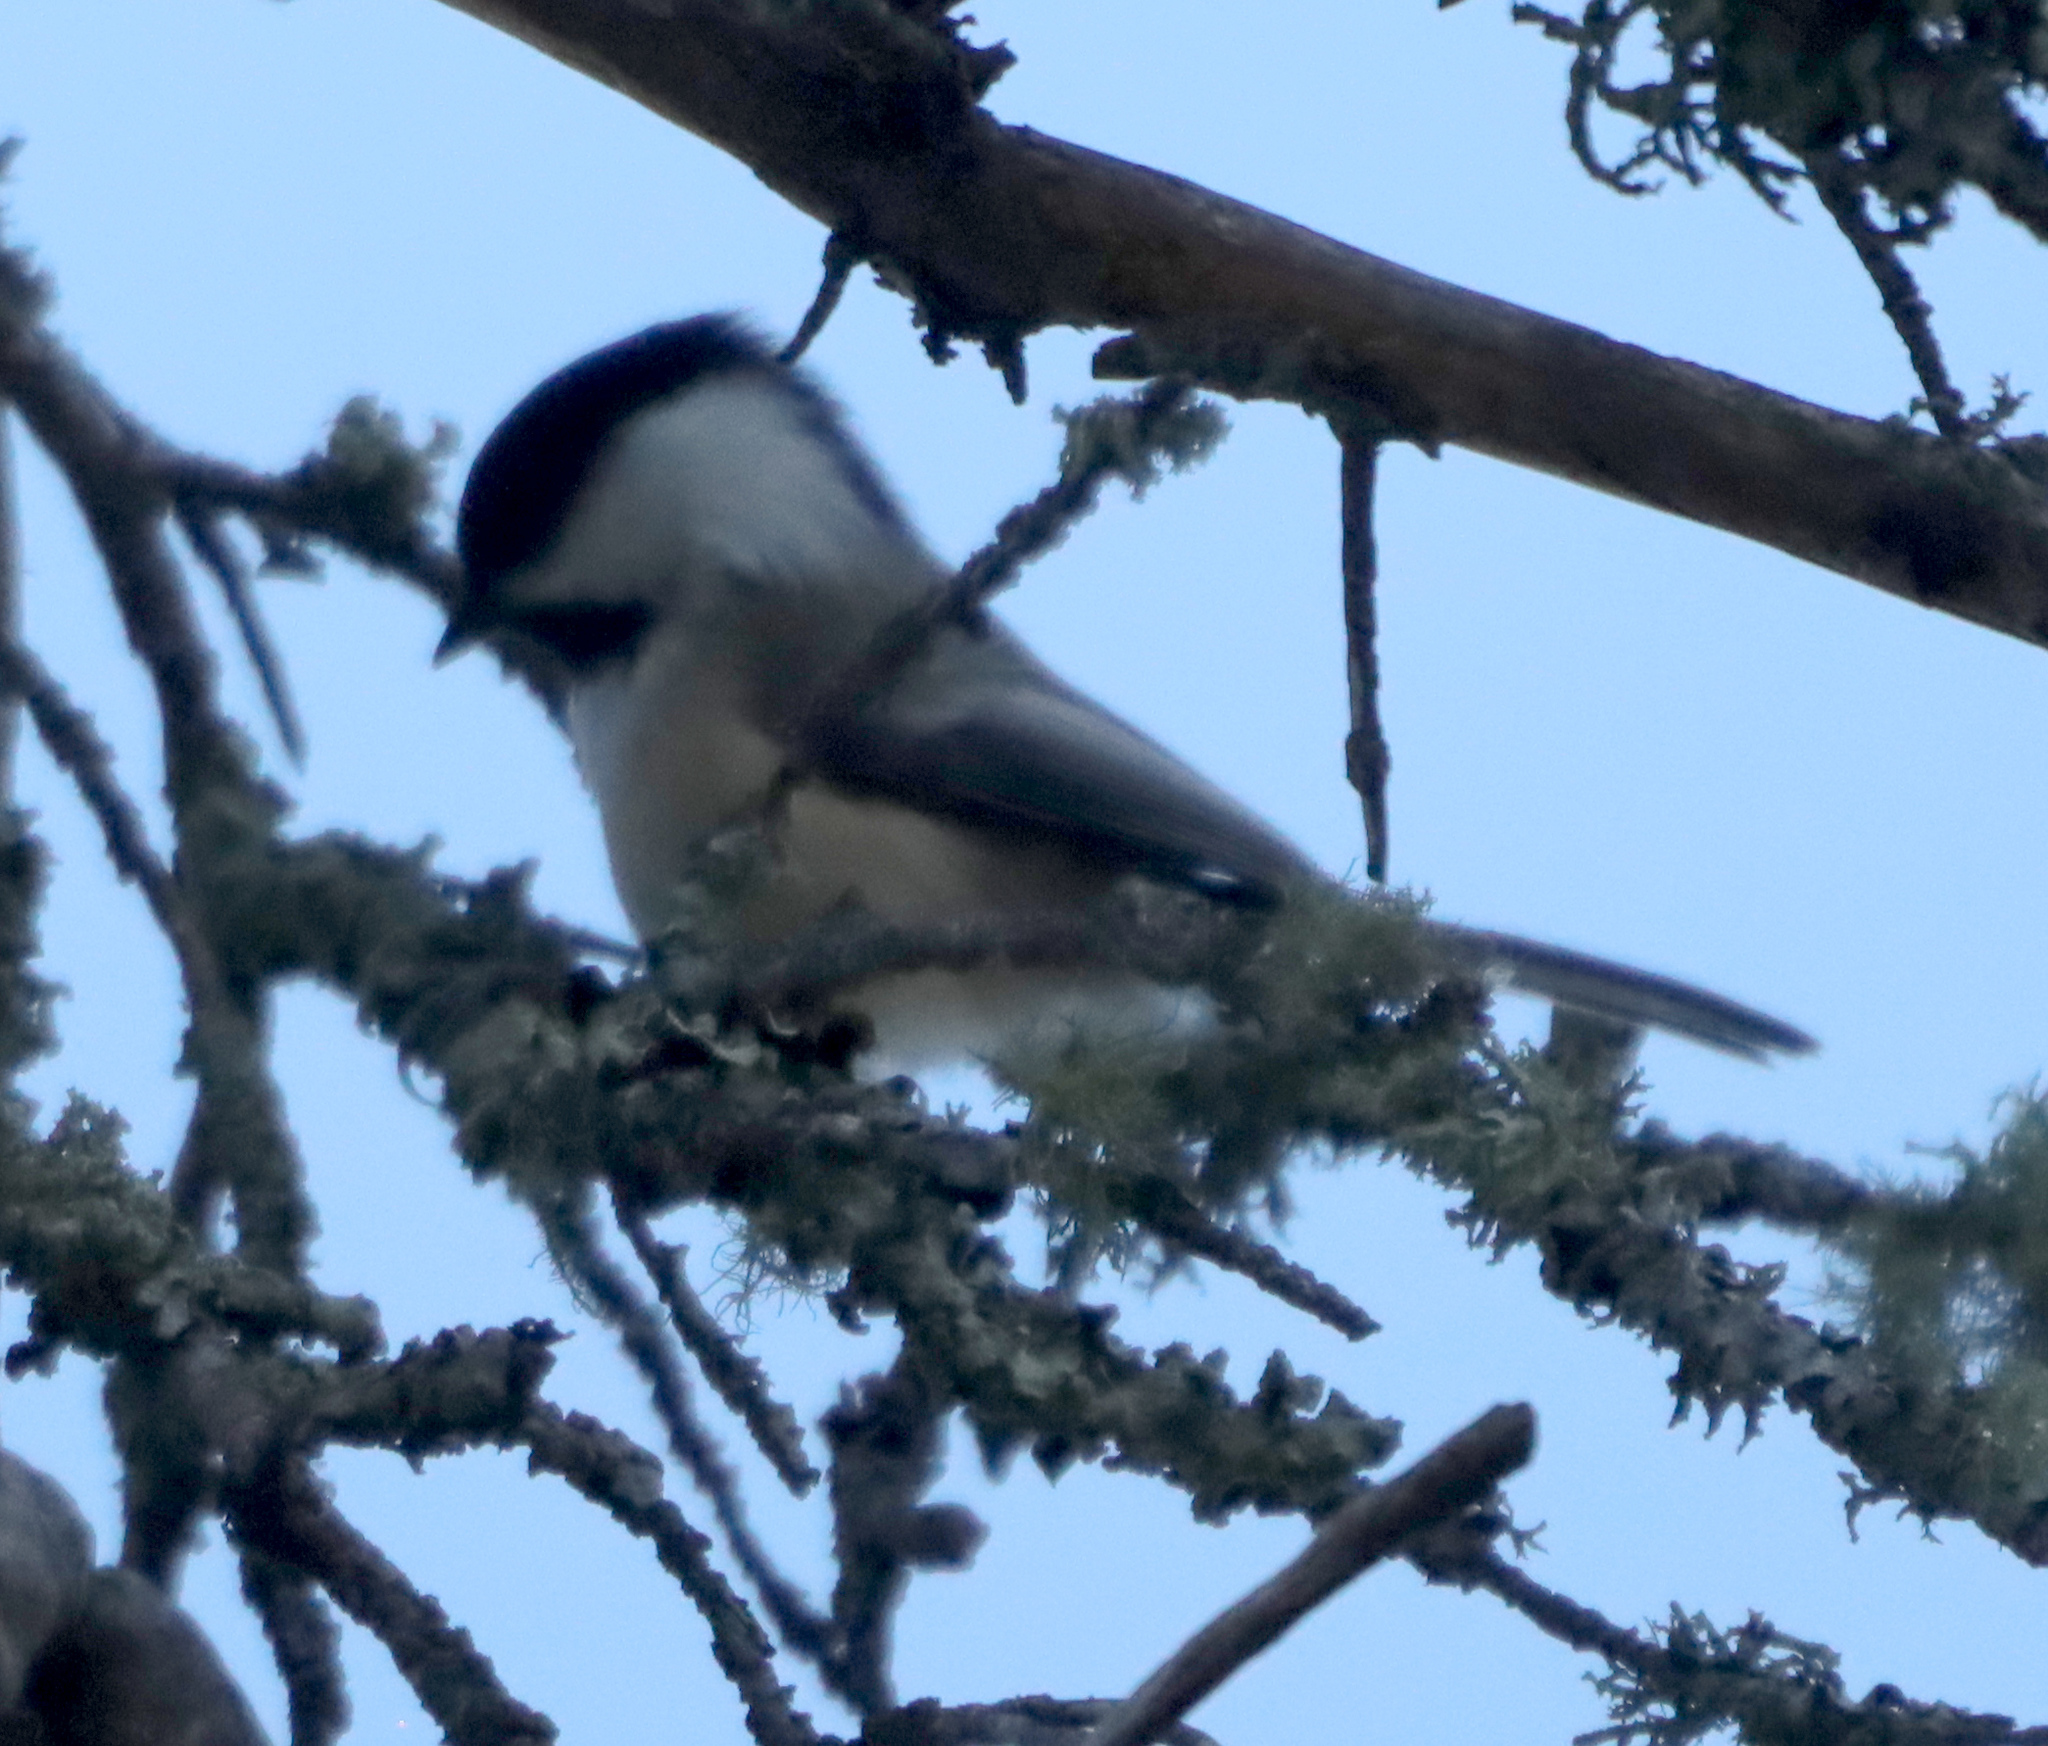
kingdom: Animalia
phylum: Chordata
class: Aves
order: Passeriformes
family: Paridae
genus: Poecile
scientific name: Poecile atricapillus
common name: Black-capped chickadee
